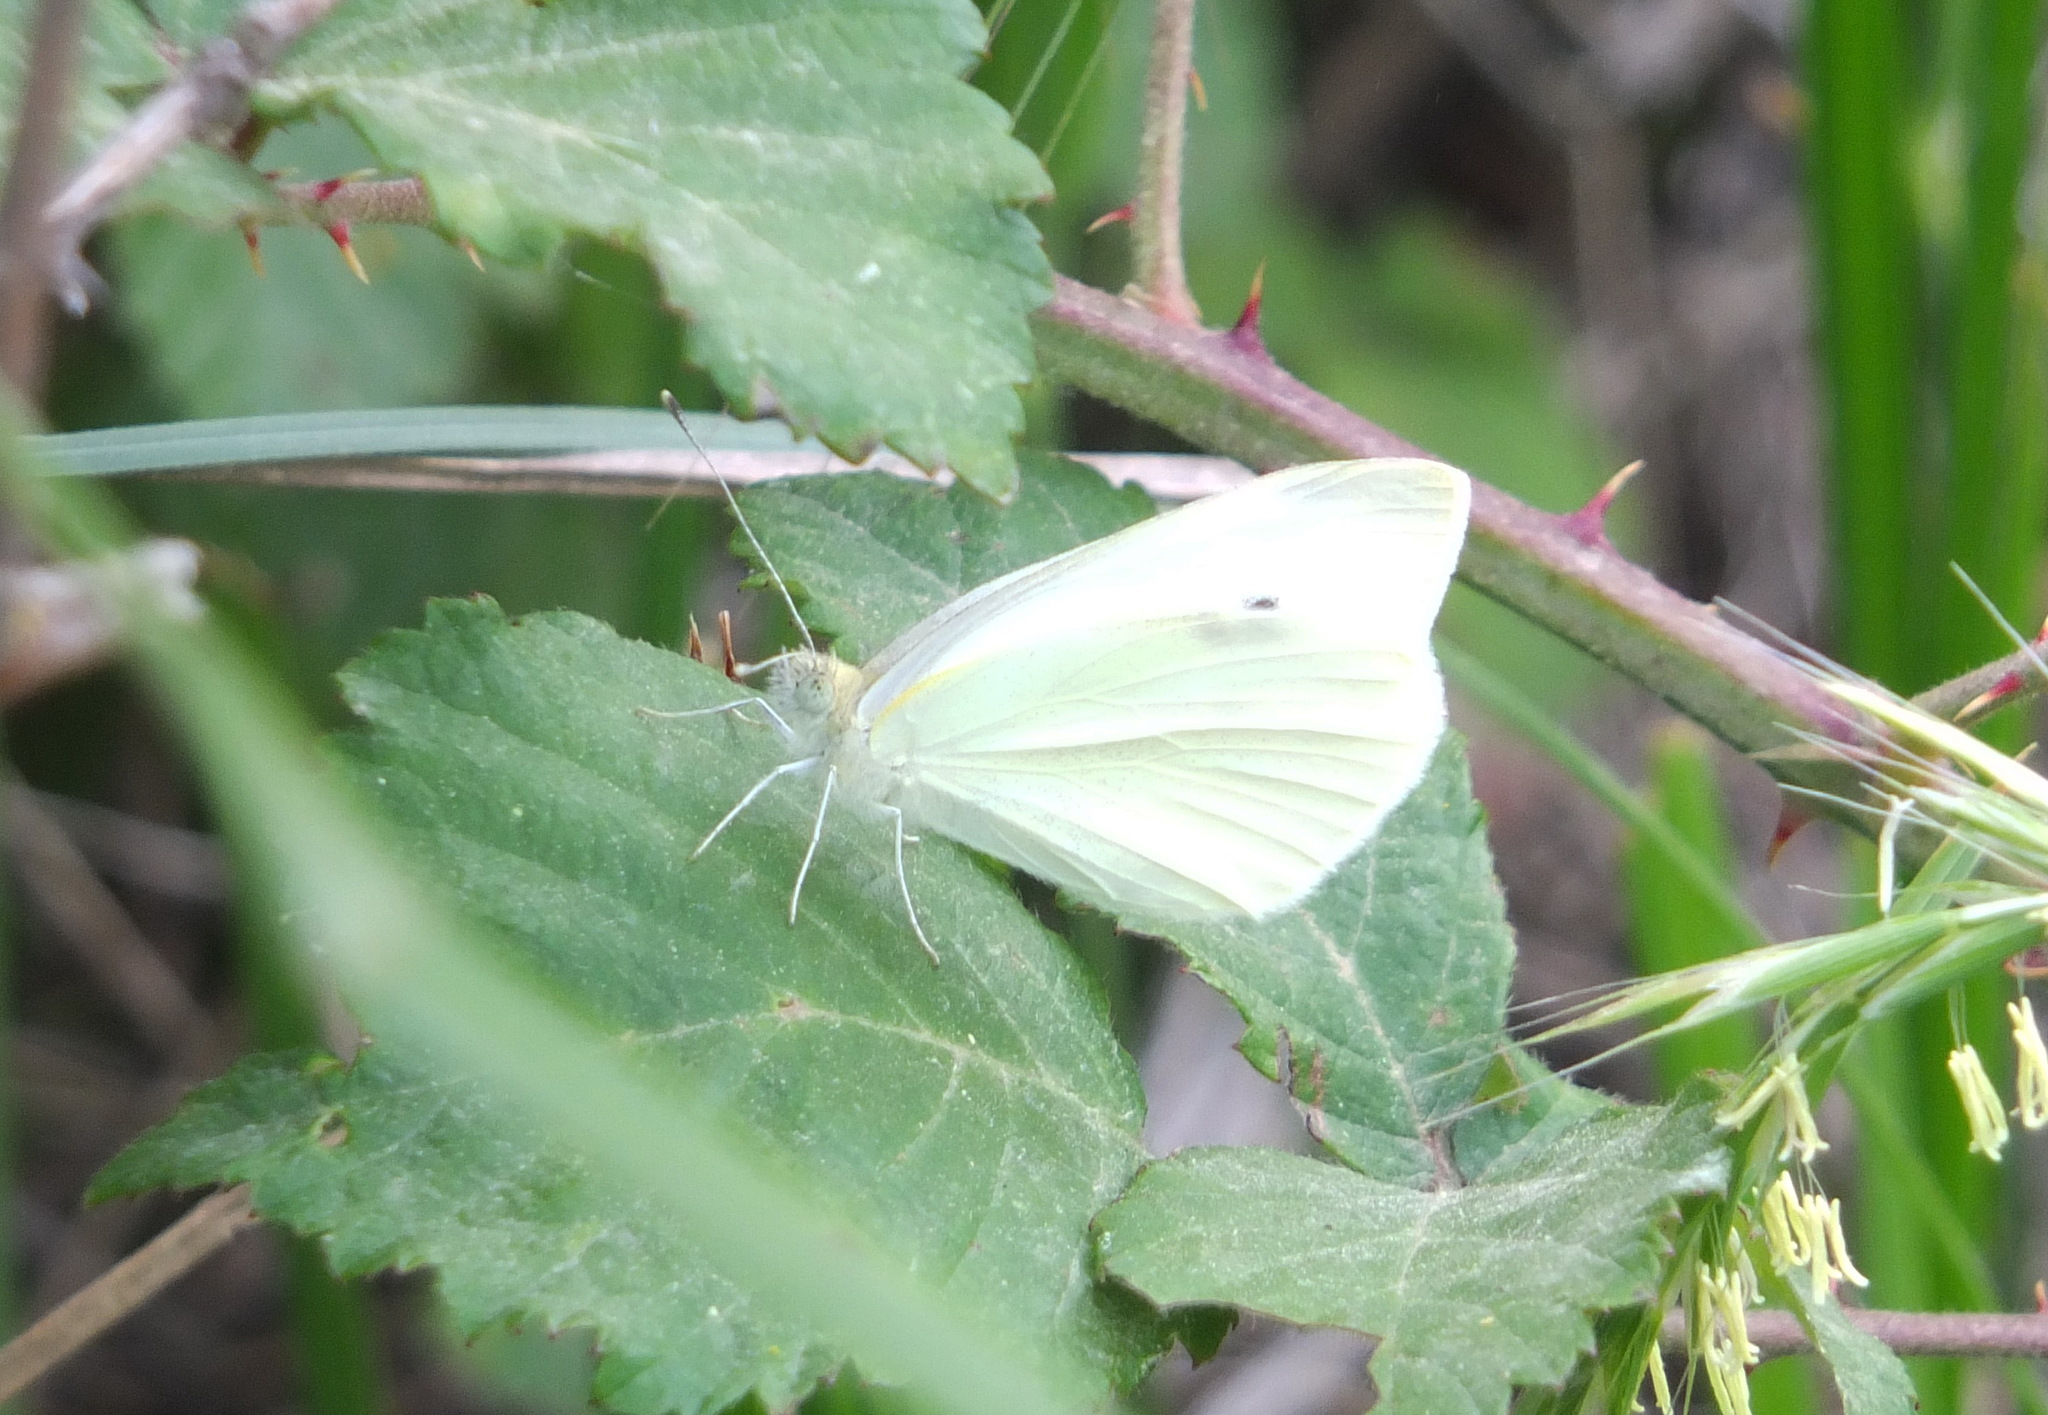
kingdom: Animalia
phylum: Arthropoda
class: Insecta
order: Lepidoptera
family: Pieridae
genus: Pieris
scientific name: Pieris rapae
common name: Small white
